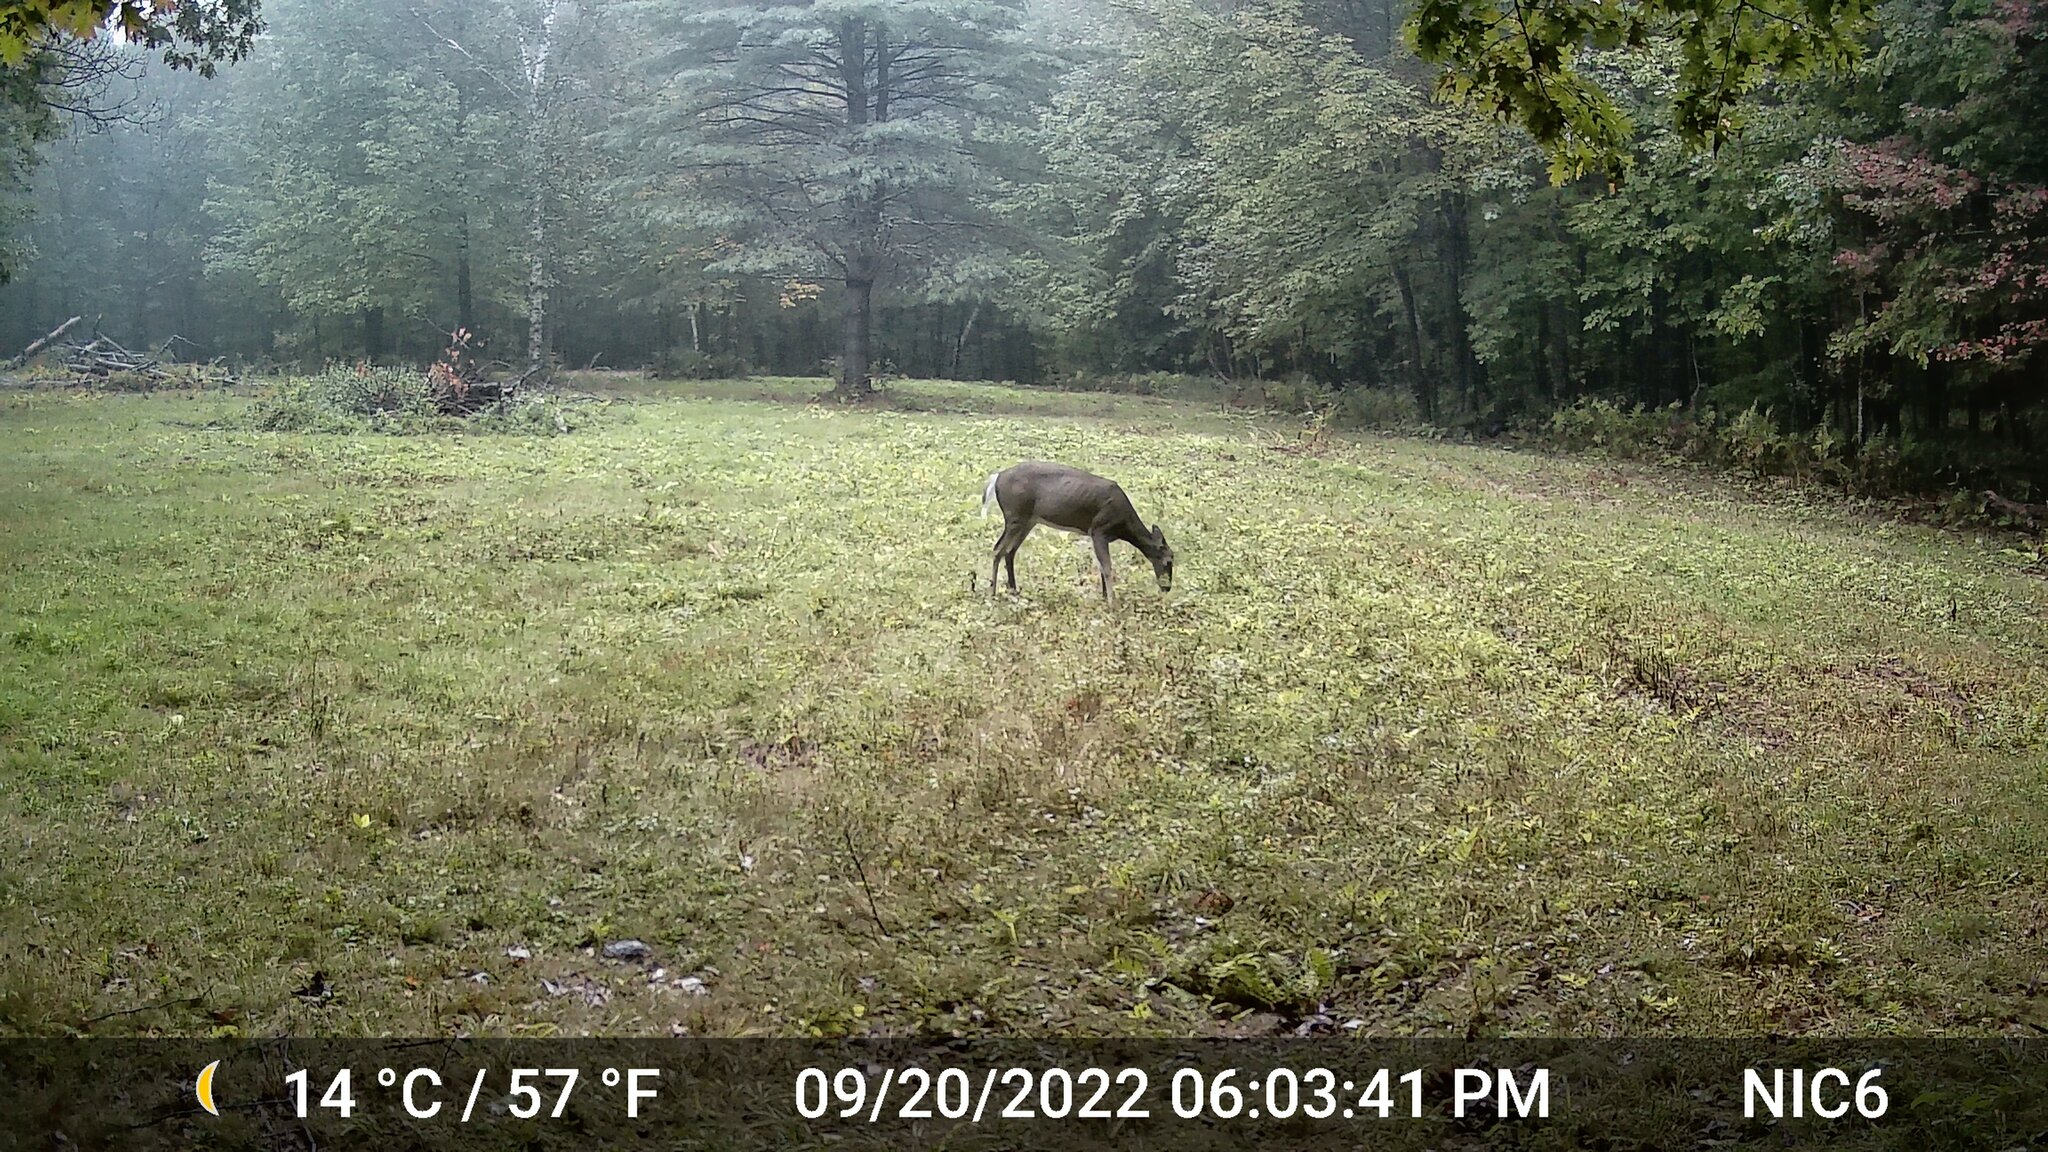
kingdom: Animalia
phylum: Chordata
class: Mammalia
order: Artiodactyla
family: Cervidae
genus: Odocoileus
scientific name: Odocoileus virginianus
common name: White-tailed deer
